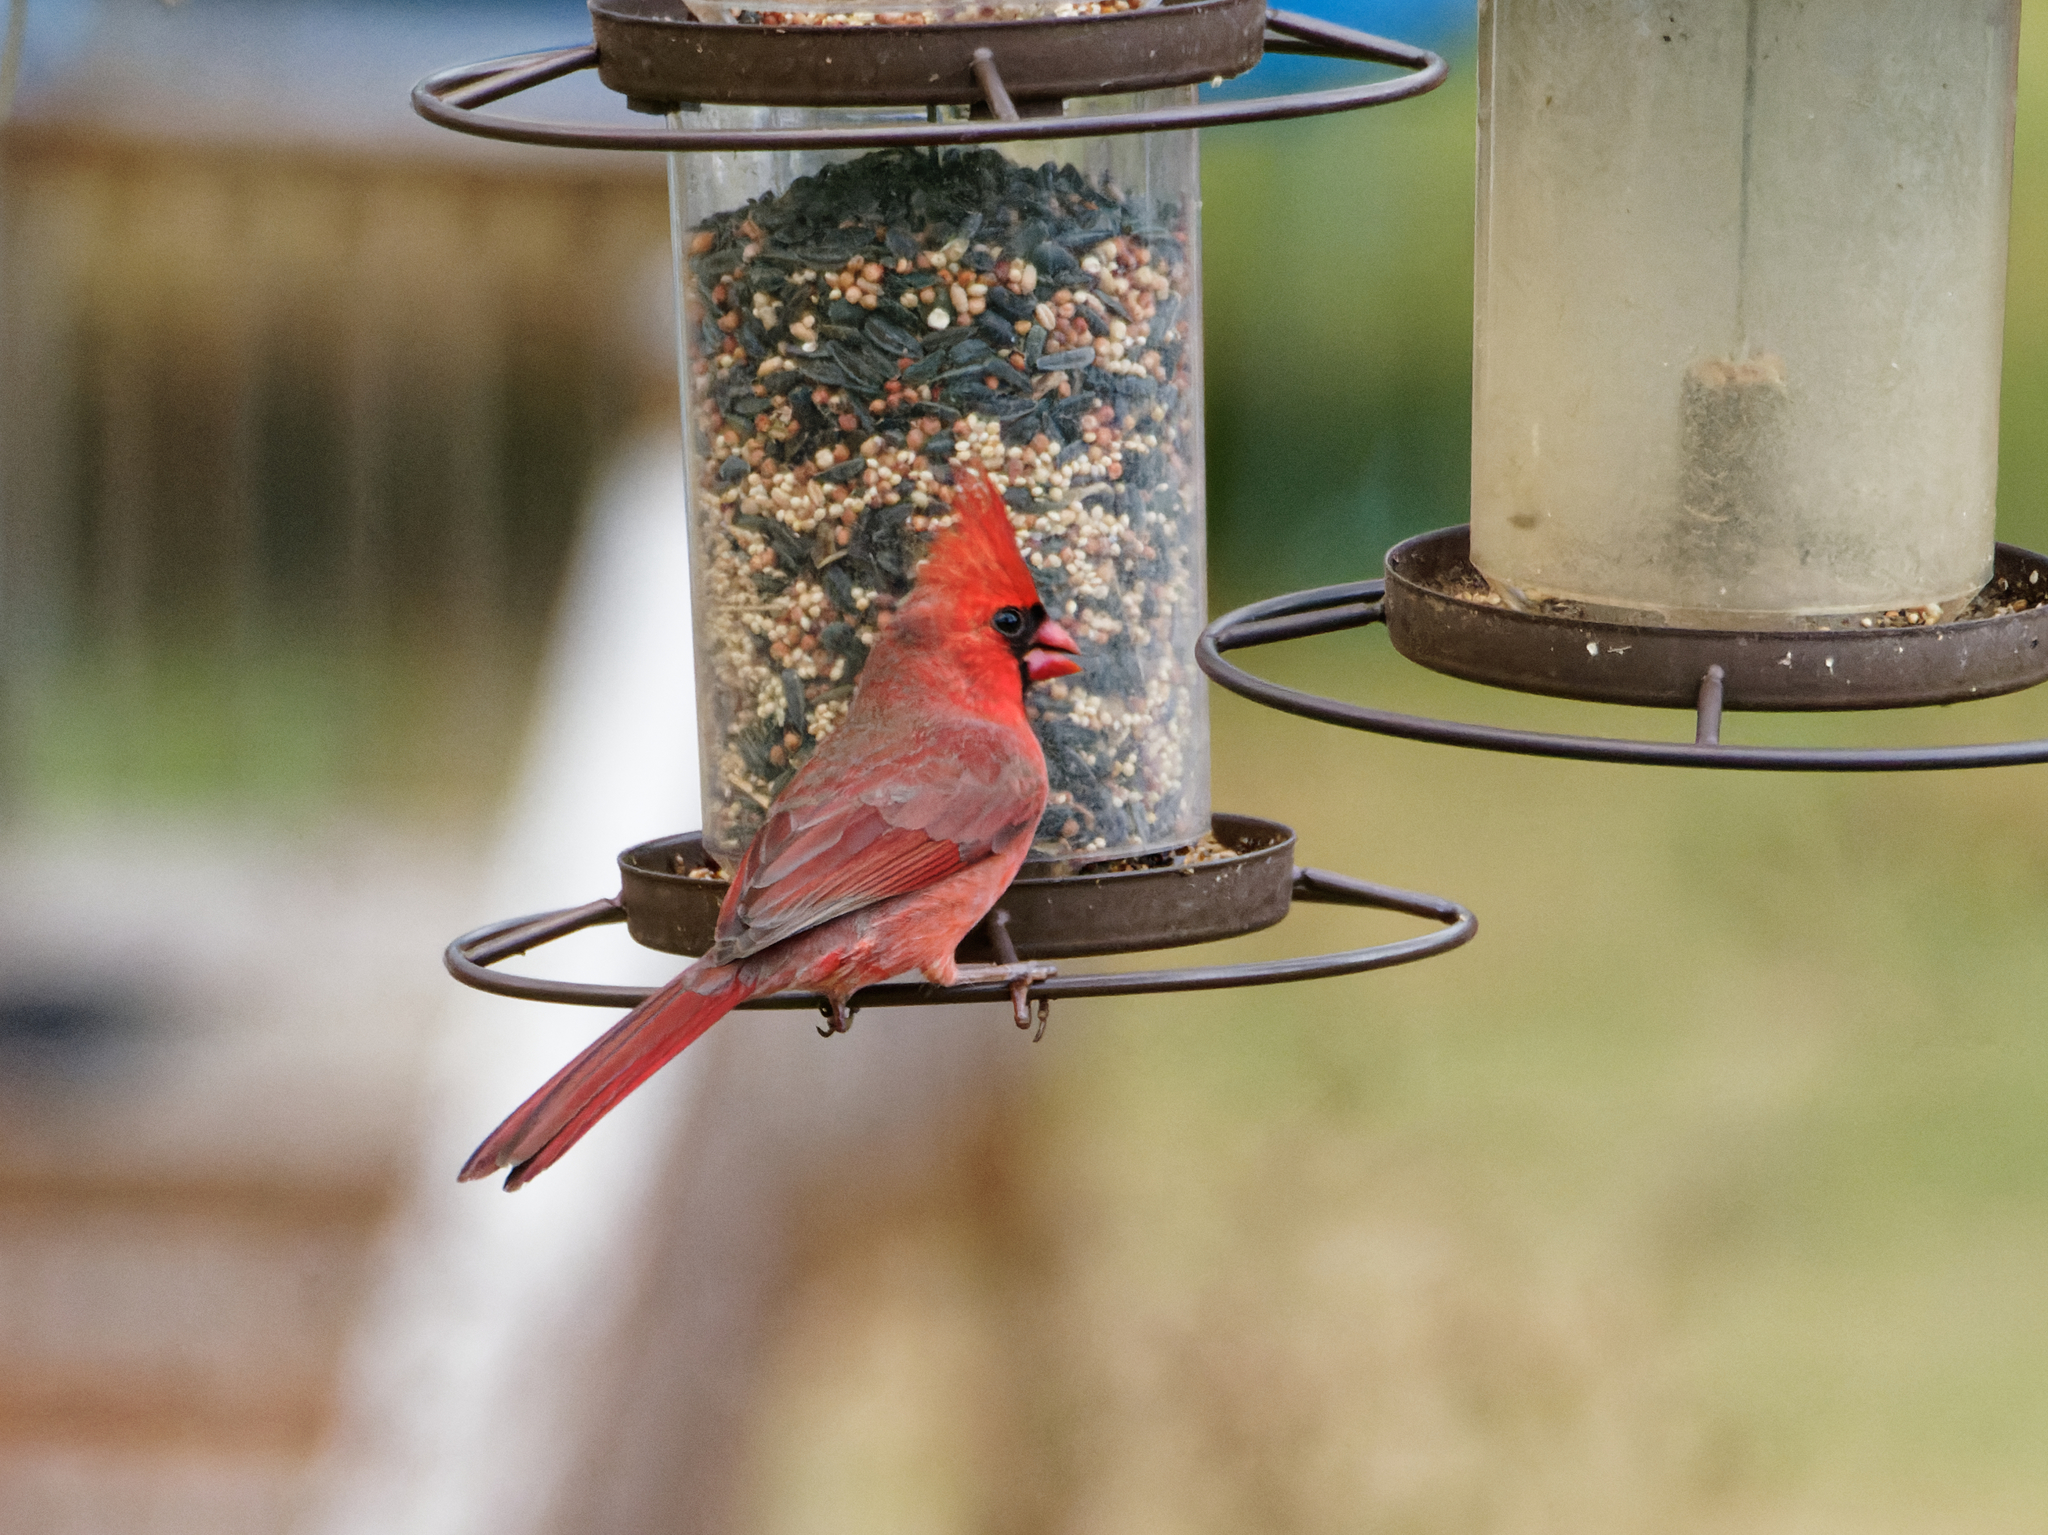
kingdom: Animalia
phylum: Chordata
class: Aves
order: Passeriformes
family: Cardinalidae
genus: Cardinalis
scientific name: Cardinalis cardinalis
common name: Northern cardinal
